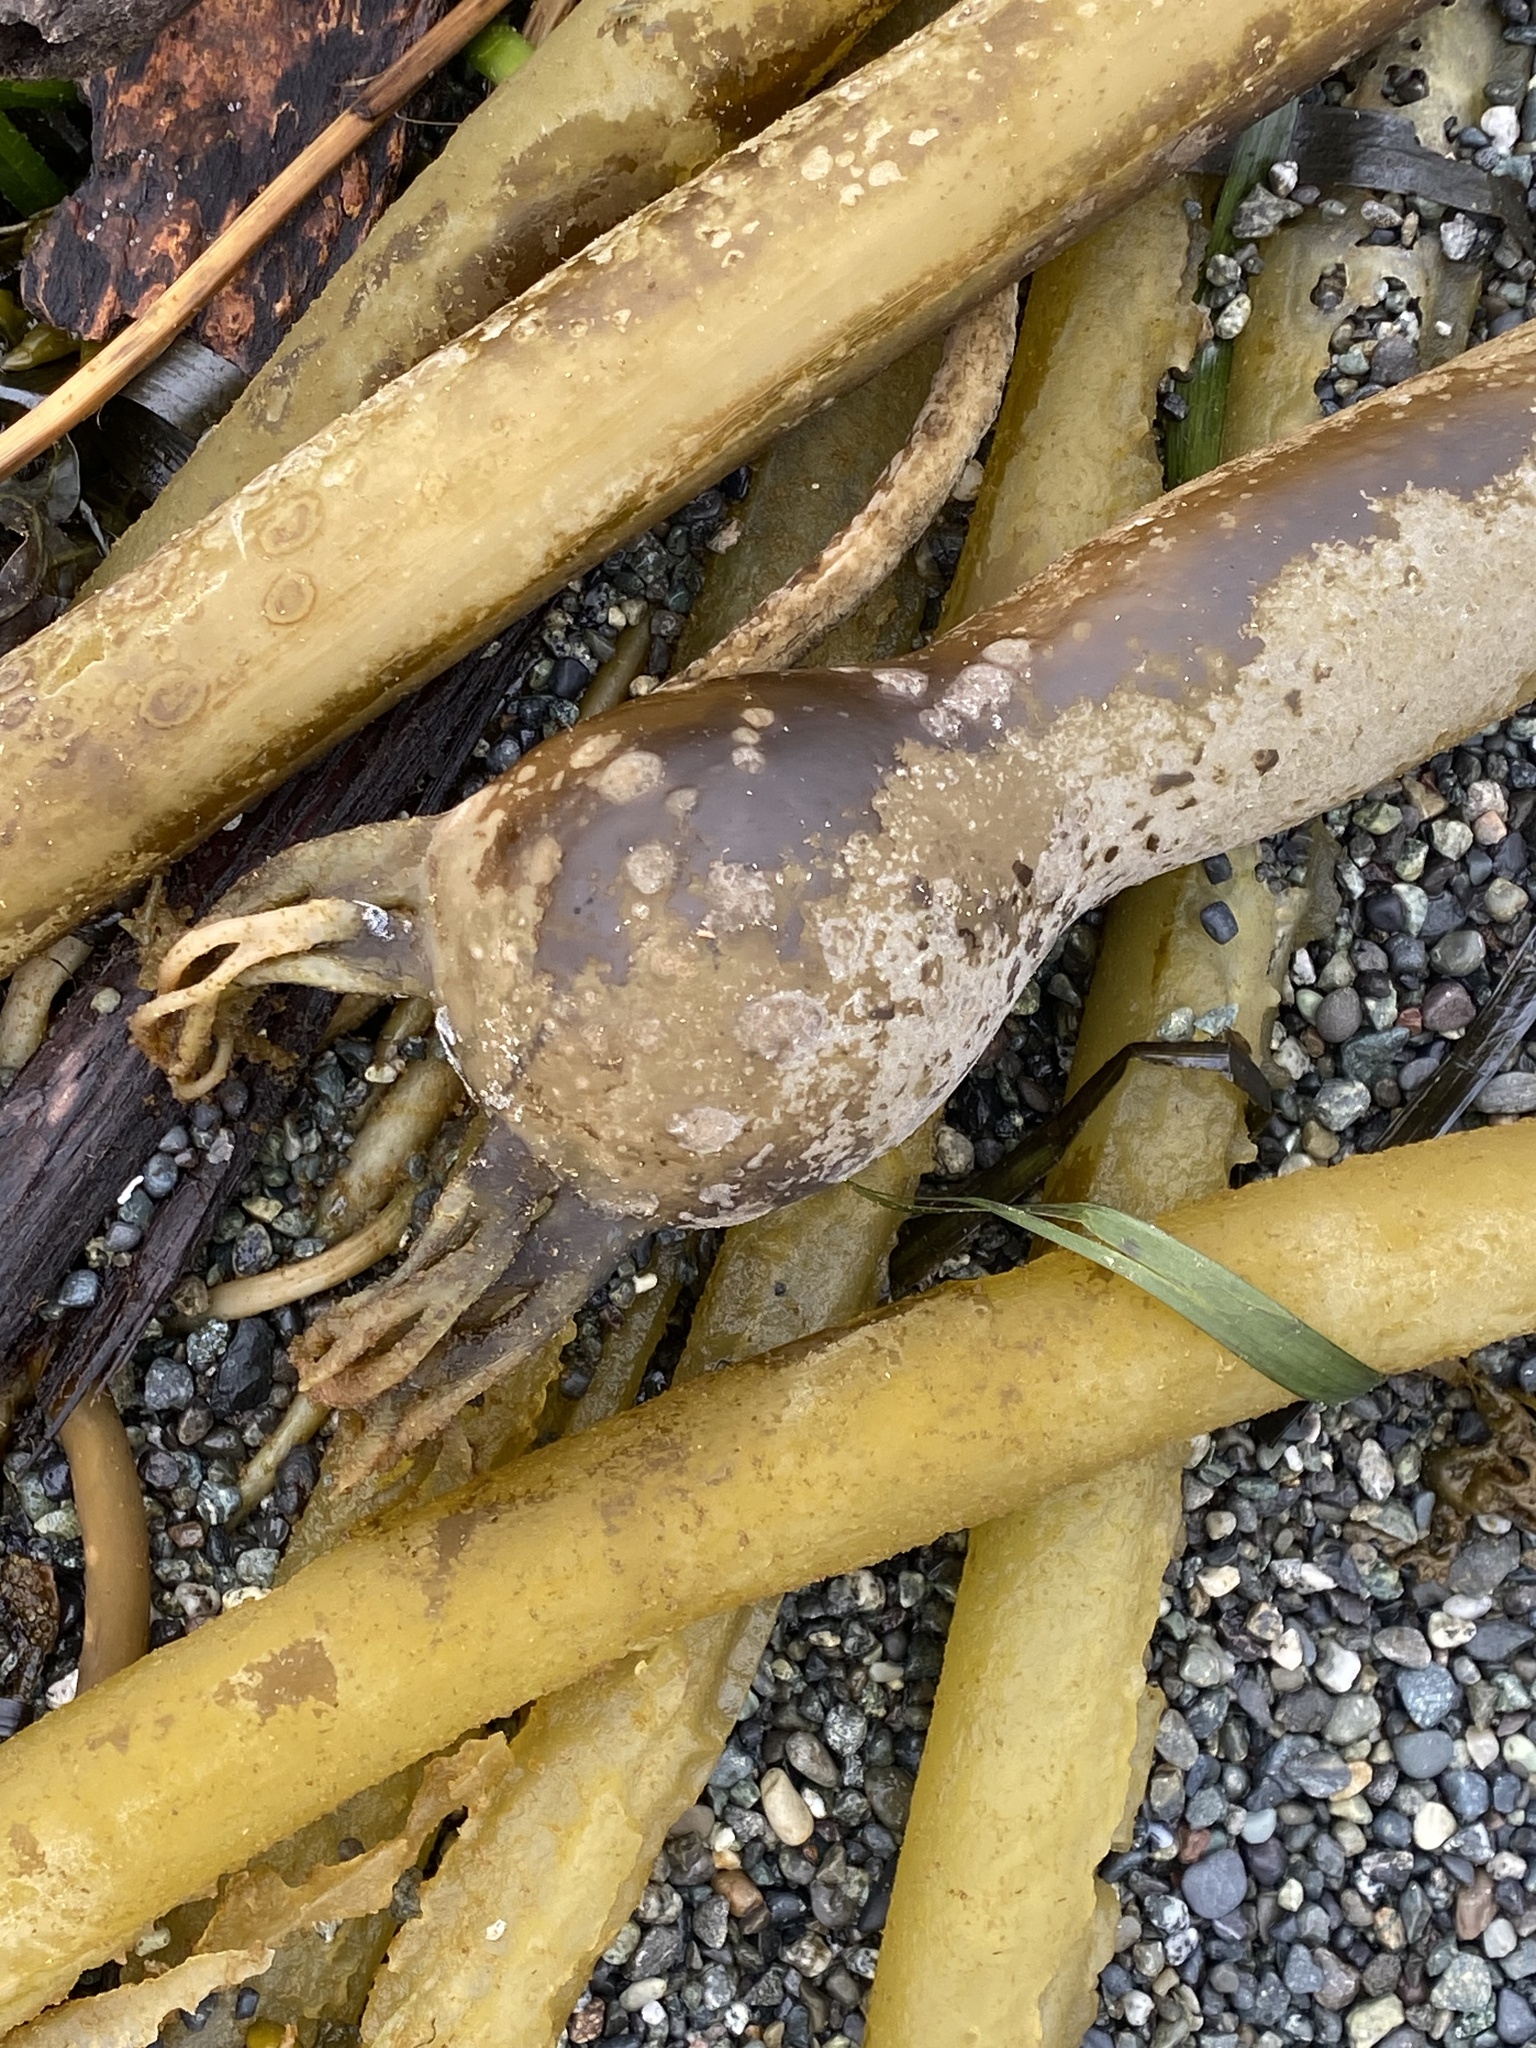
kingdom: Chromista
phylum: Ochrophyta
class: Phaeophyceae
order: Laminariales
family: Laminariaceae
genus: Nereocystis
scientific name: Nereocystis luetkeana
